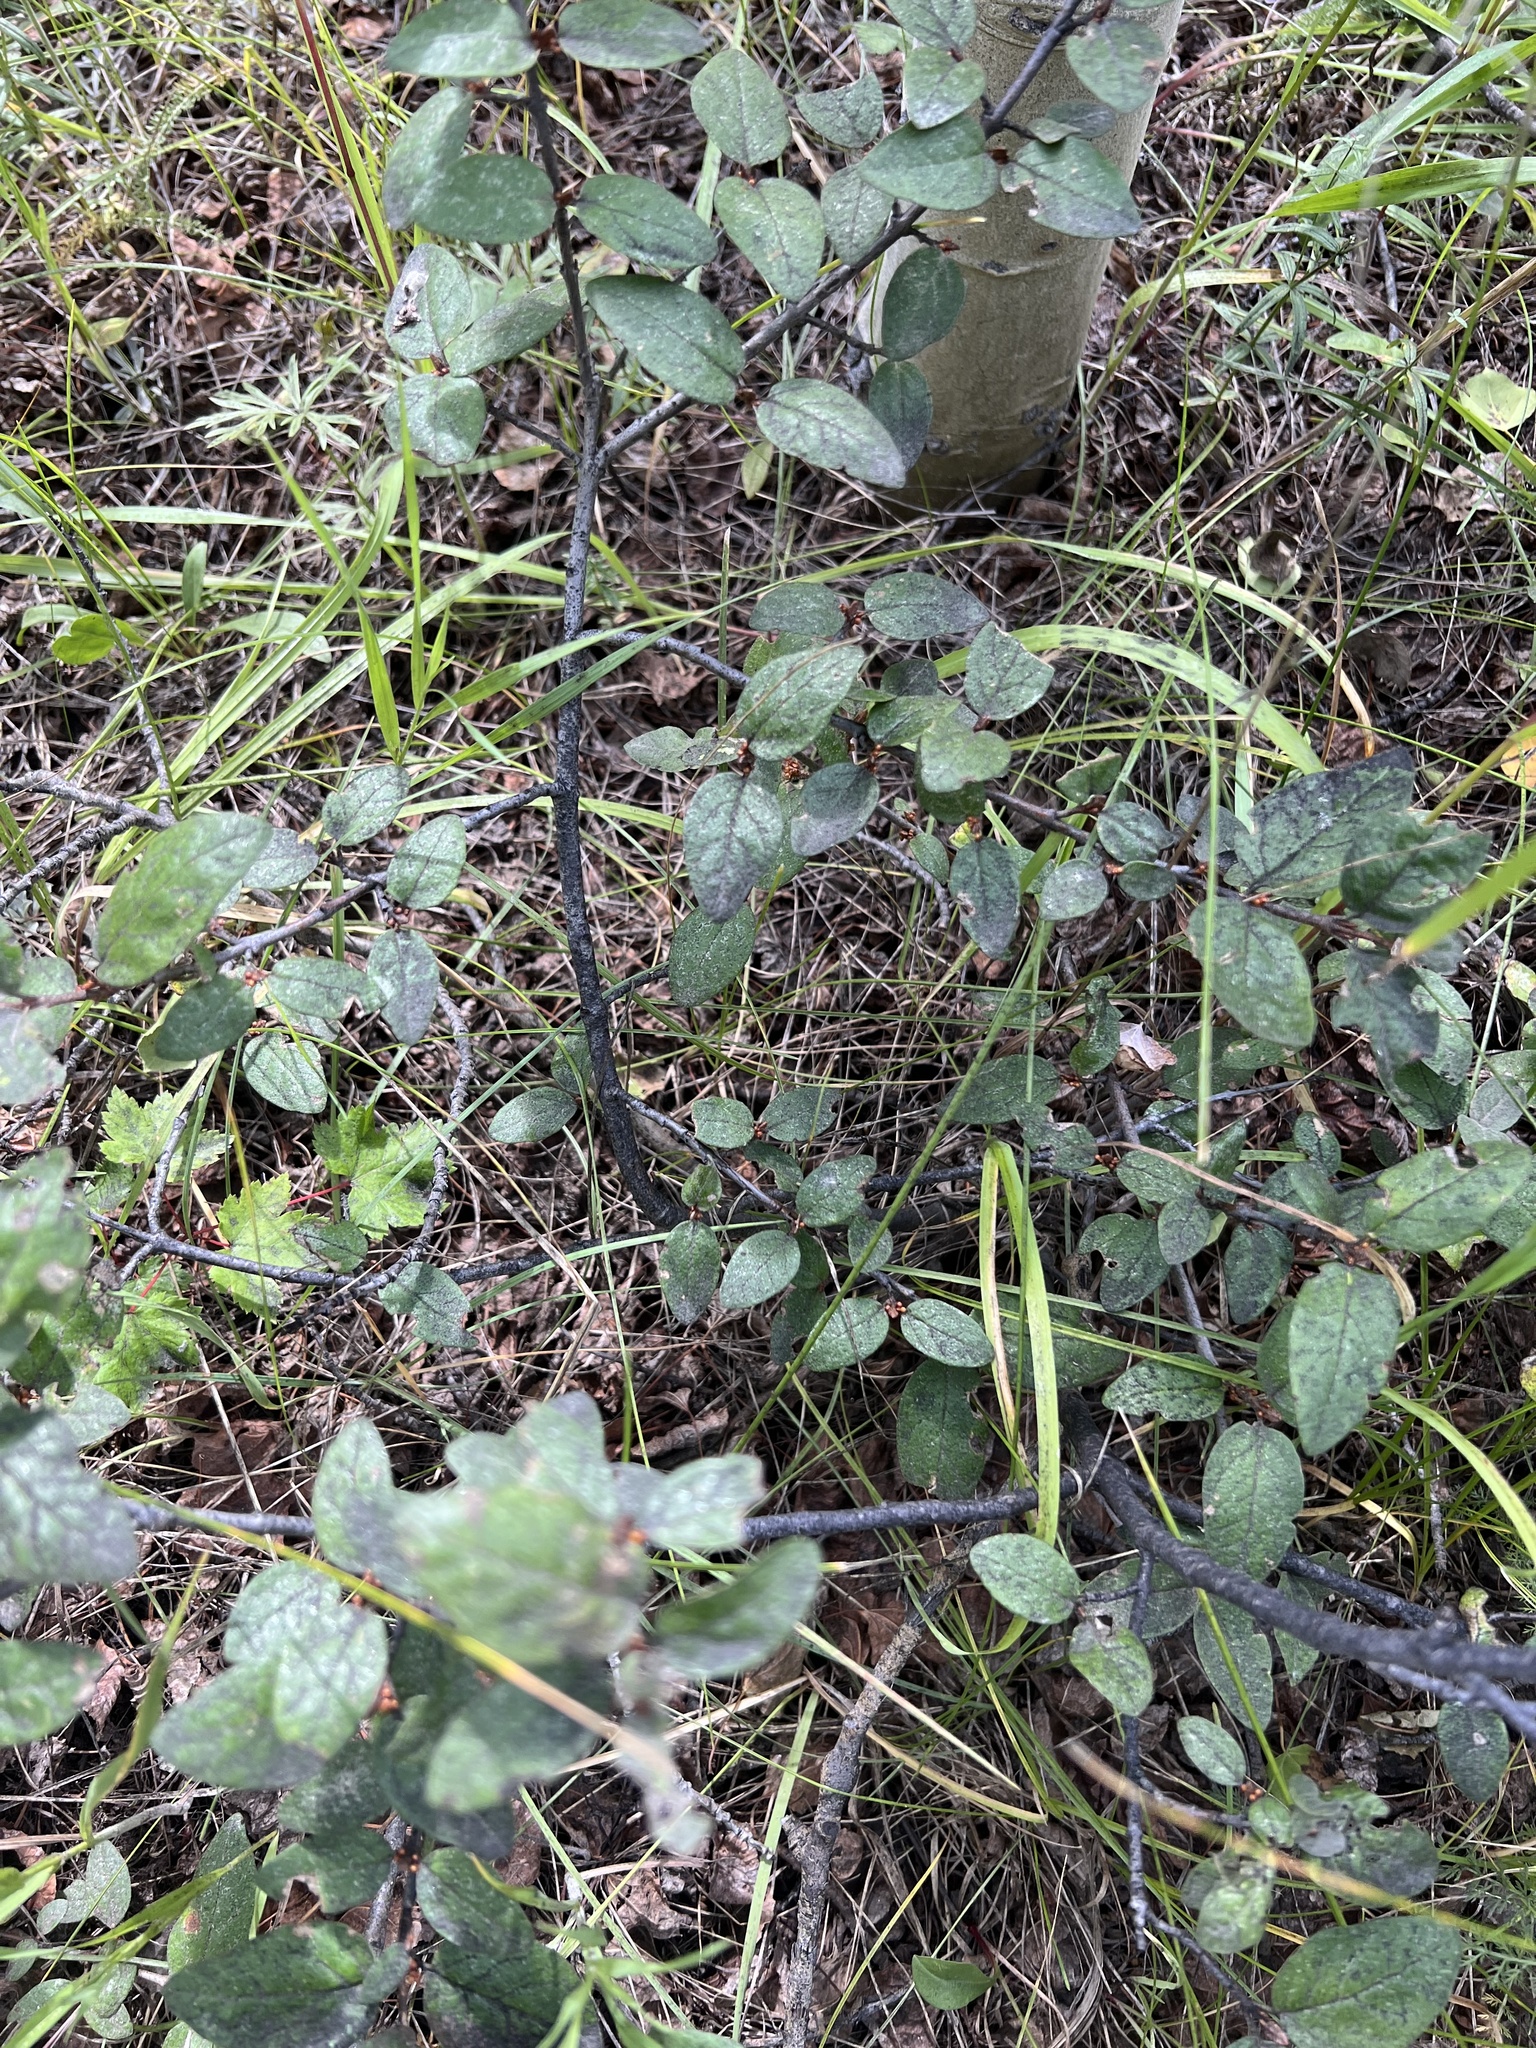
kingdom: Plantae
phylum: Tracheophyta
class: Magnoliopsida
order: Rosales
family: Elaeagnaceae
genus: Shepherdia
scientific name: Shepherdia canadensis
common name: Soapberry
